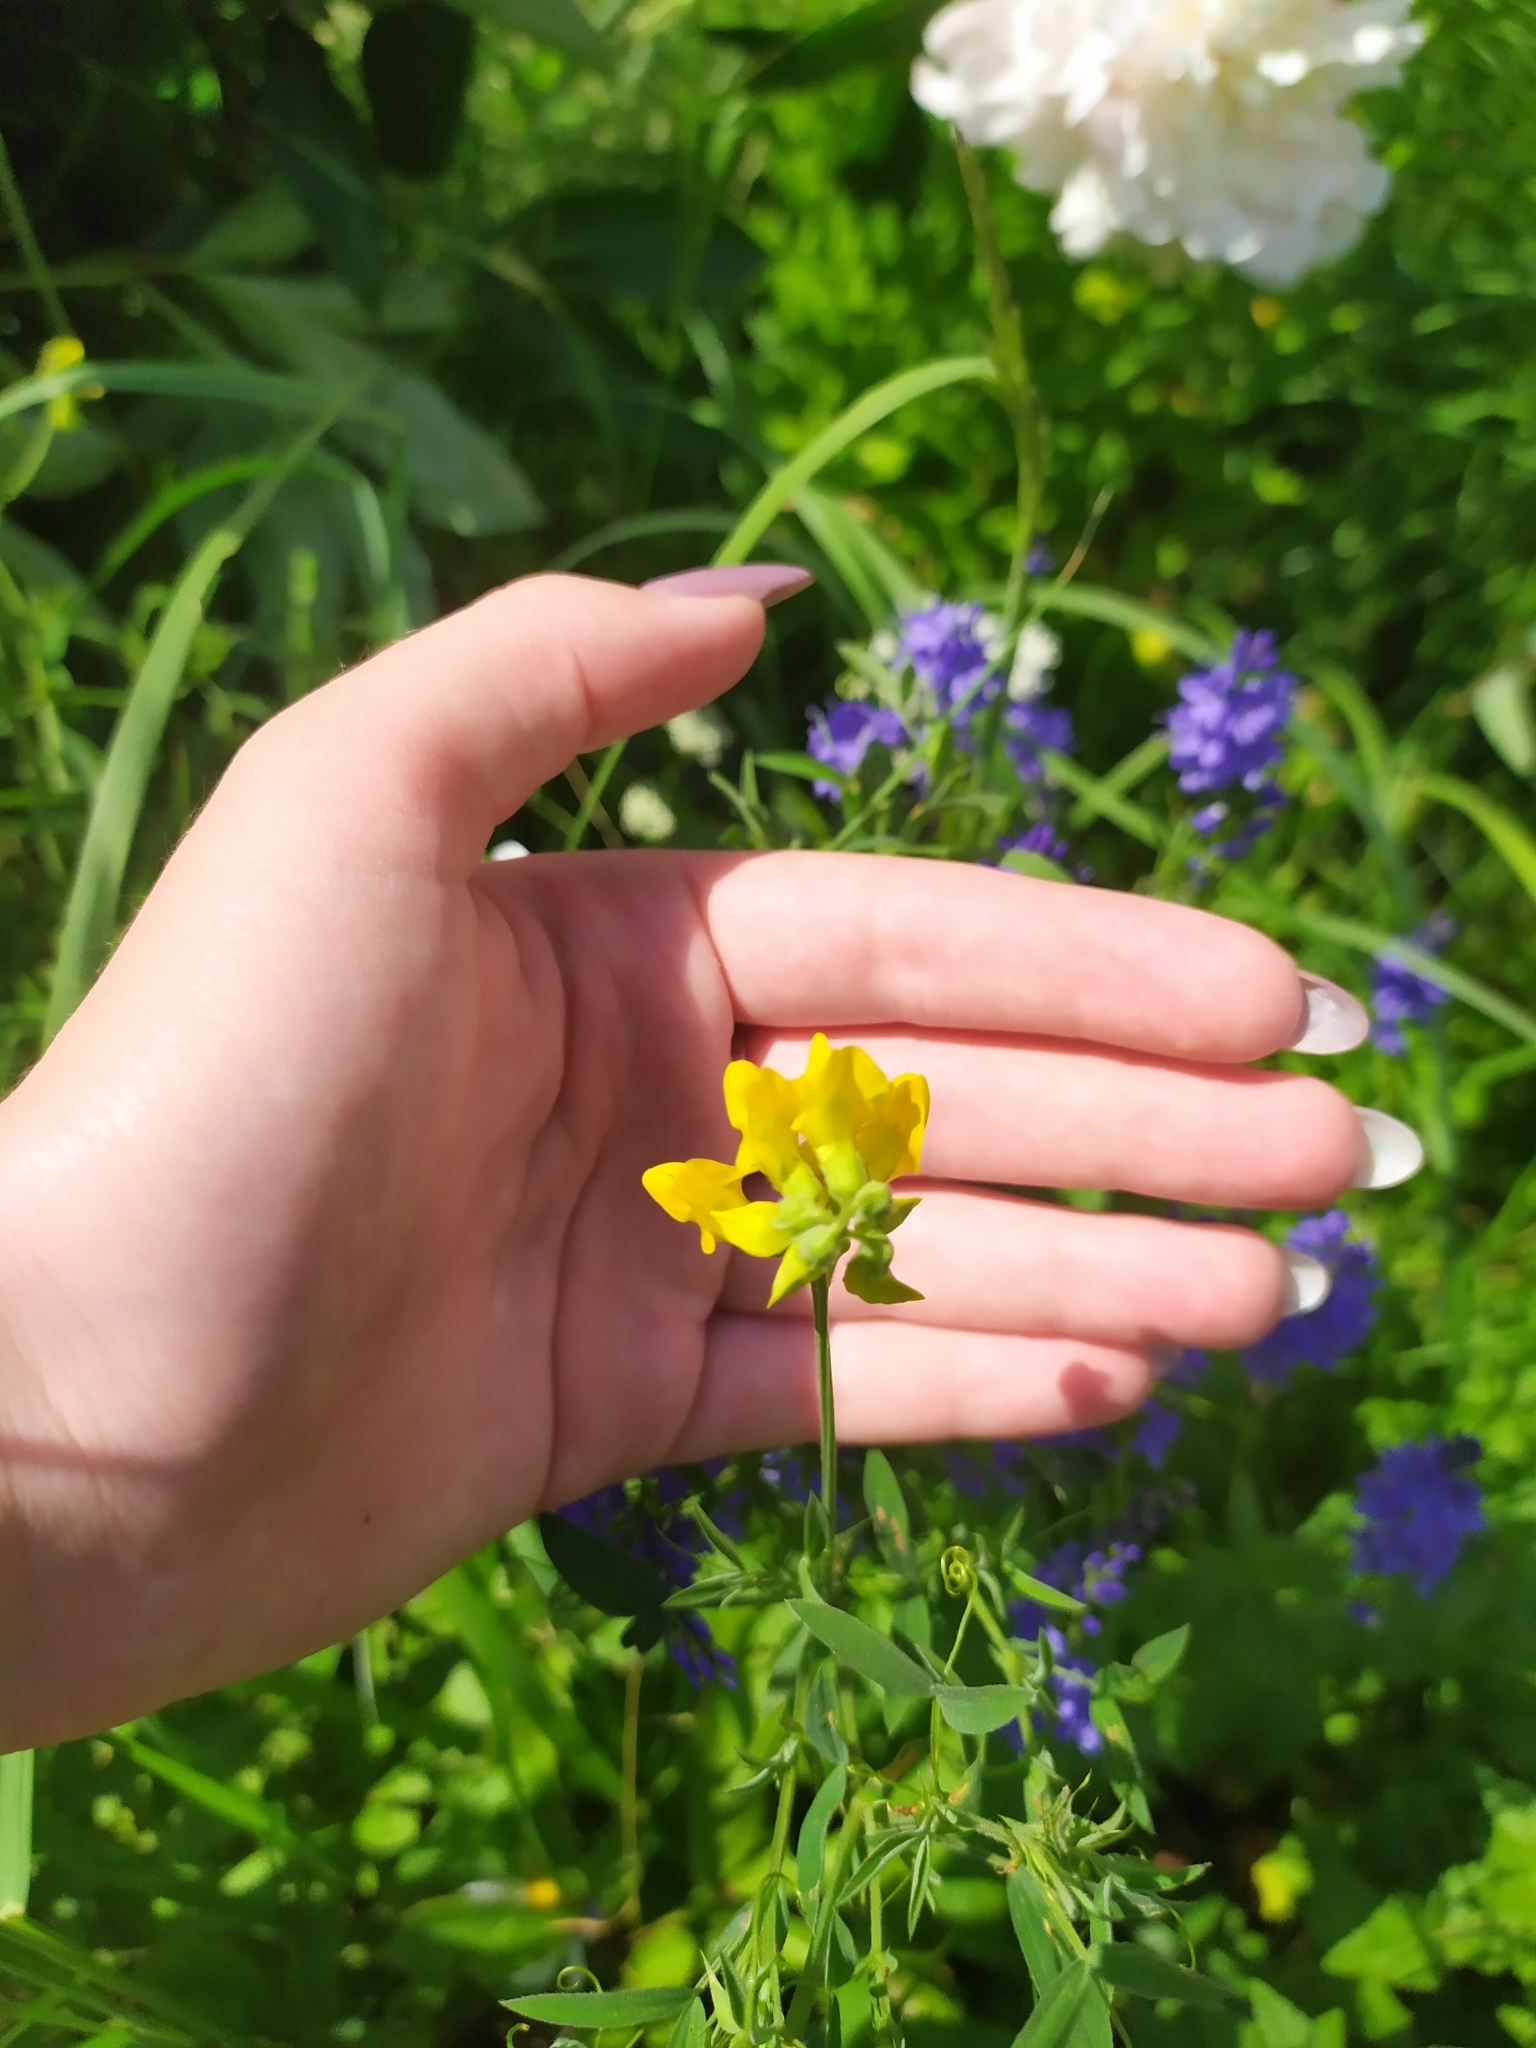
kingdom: Plantae
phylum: Tracheophyta
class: Magnoliopsida
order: Fabales
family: Fabaceae
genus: Lathyrus
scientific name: Lathyrus pratensis
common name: Meadow vetchling
